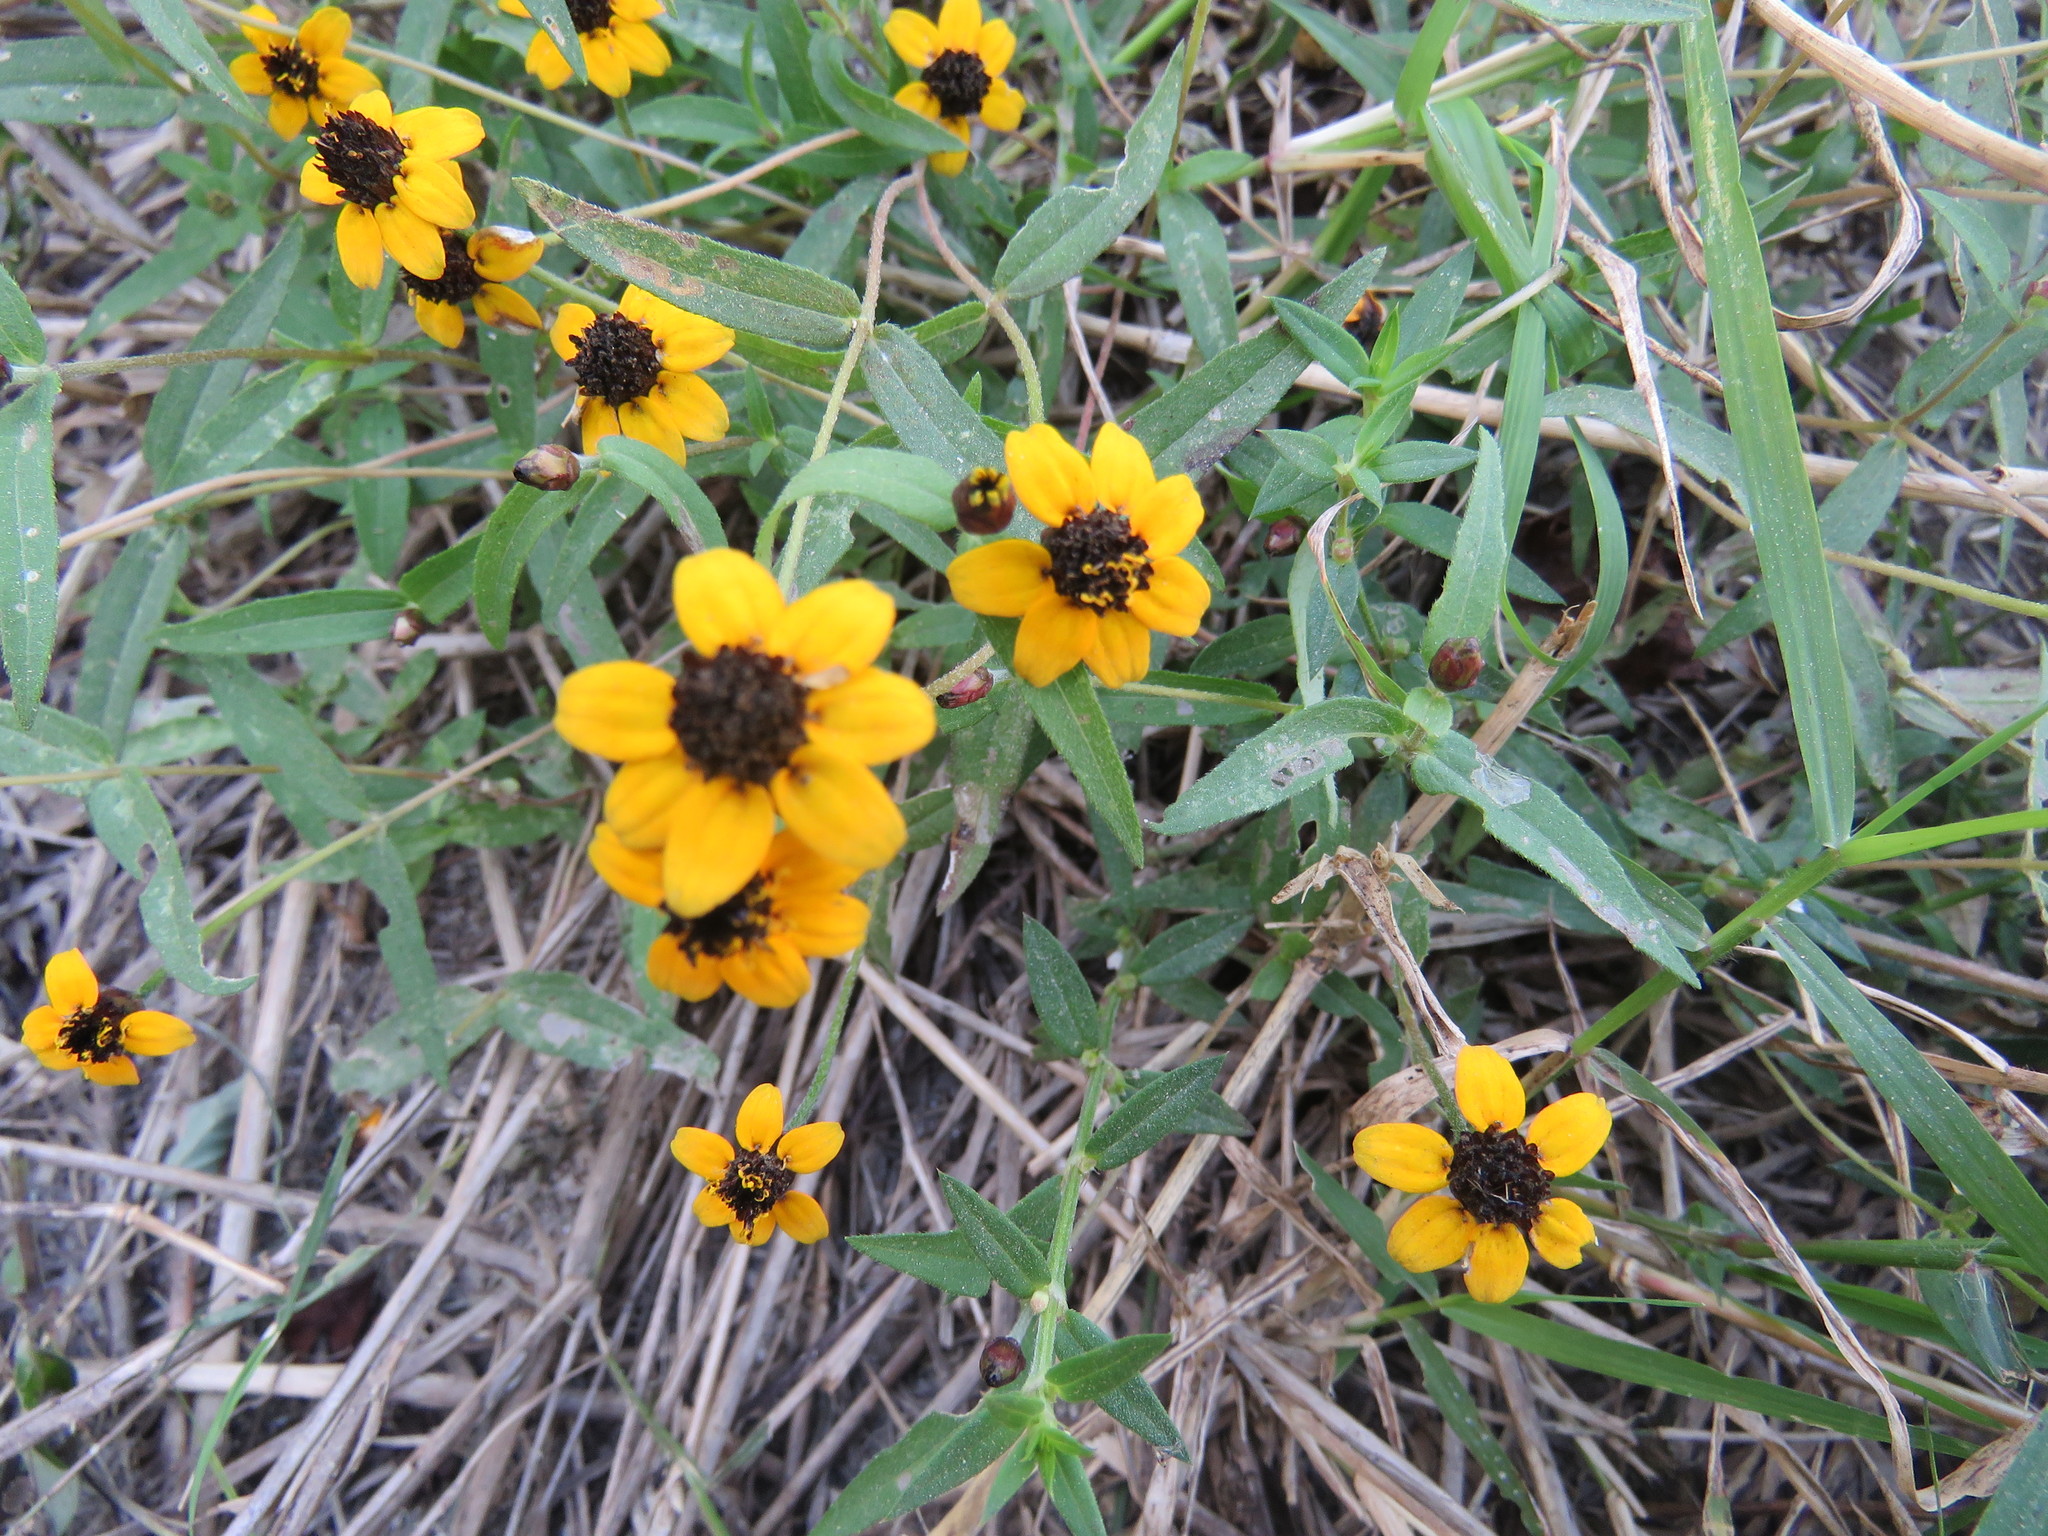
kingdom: Plantae
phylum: Tracheophyta
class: Magnoliopsida
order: Asterales
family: Asteraceae
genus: Zinnia
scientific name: Zinnia maritima
